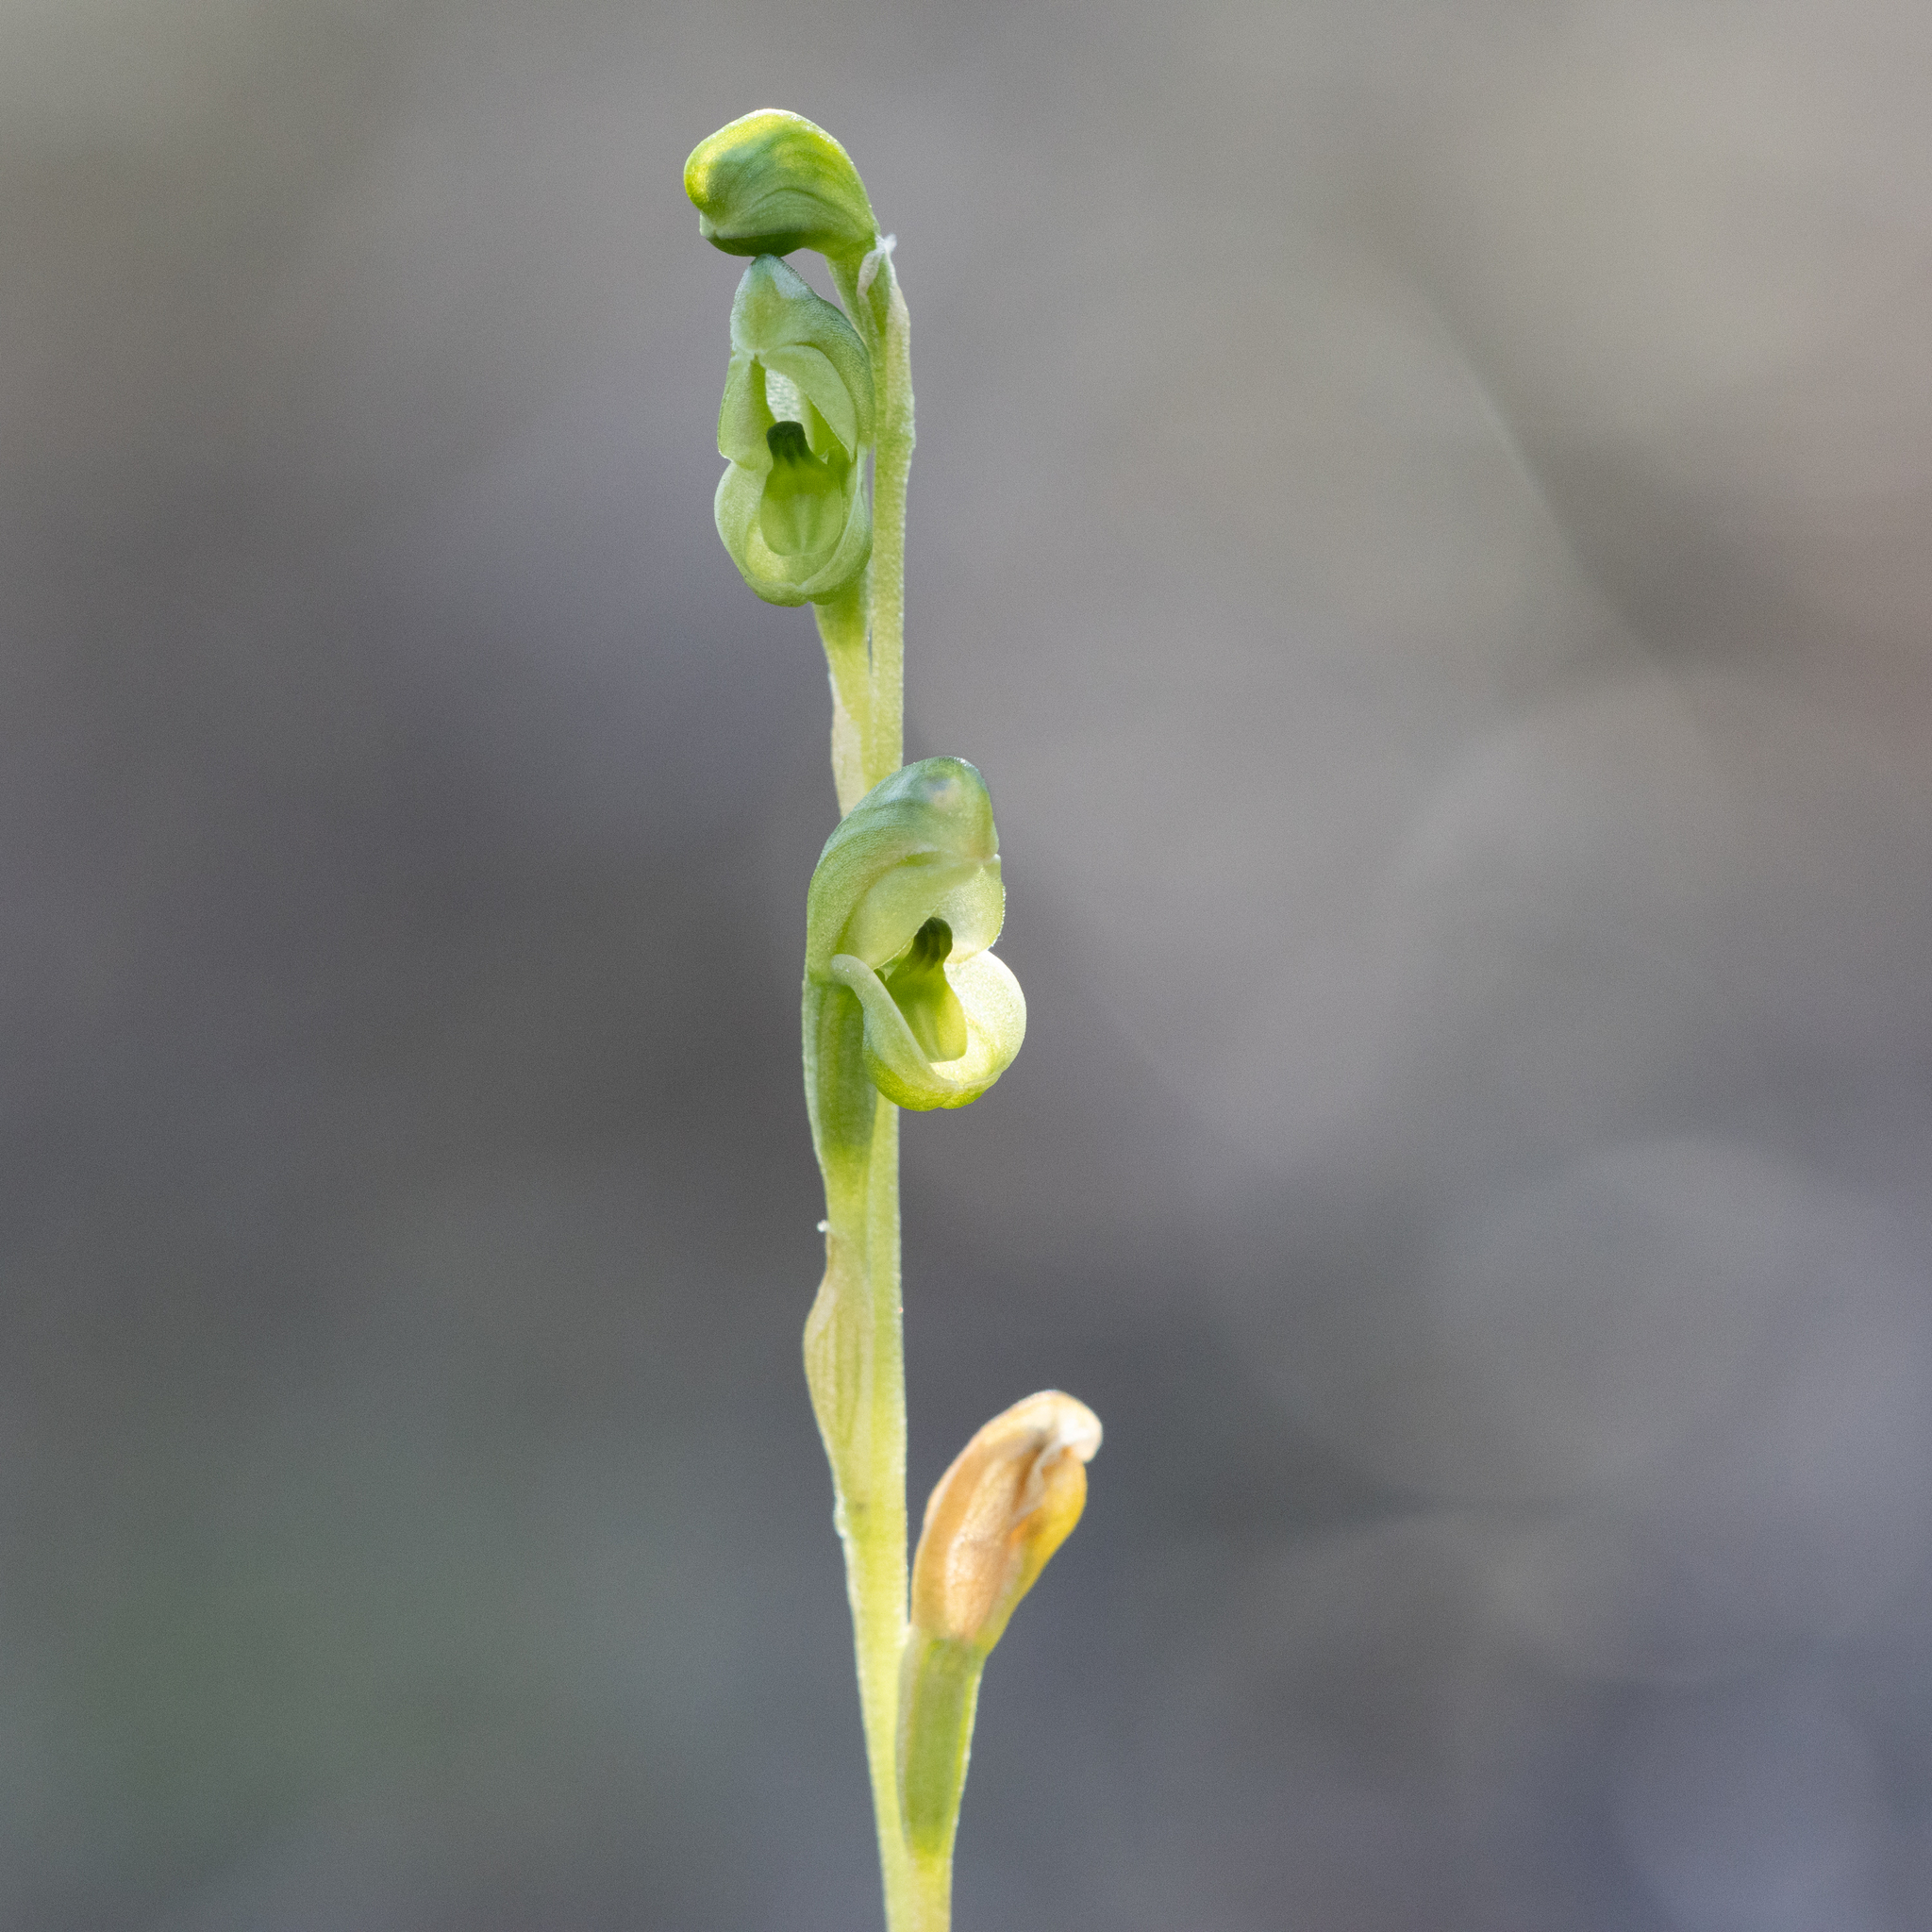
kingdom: Plantae
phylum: Tracheophyta
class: Liliopsida
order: Asparagales
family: Orchidaceae
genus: Pterostylis
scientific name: Pterostylis mutica
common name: Midget greenhood
